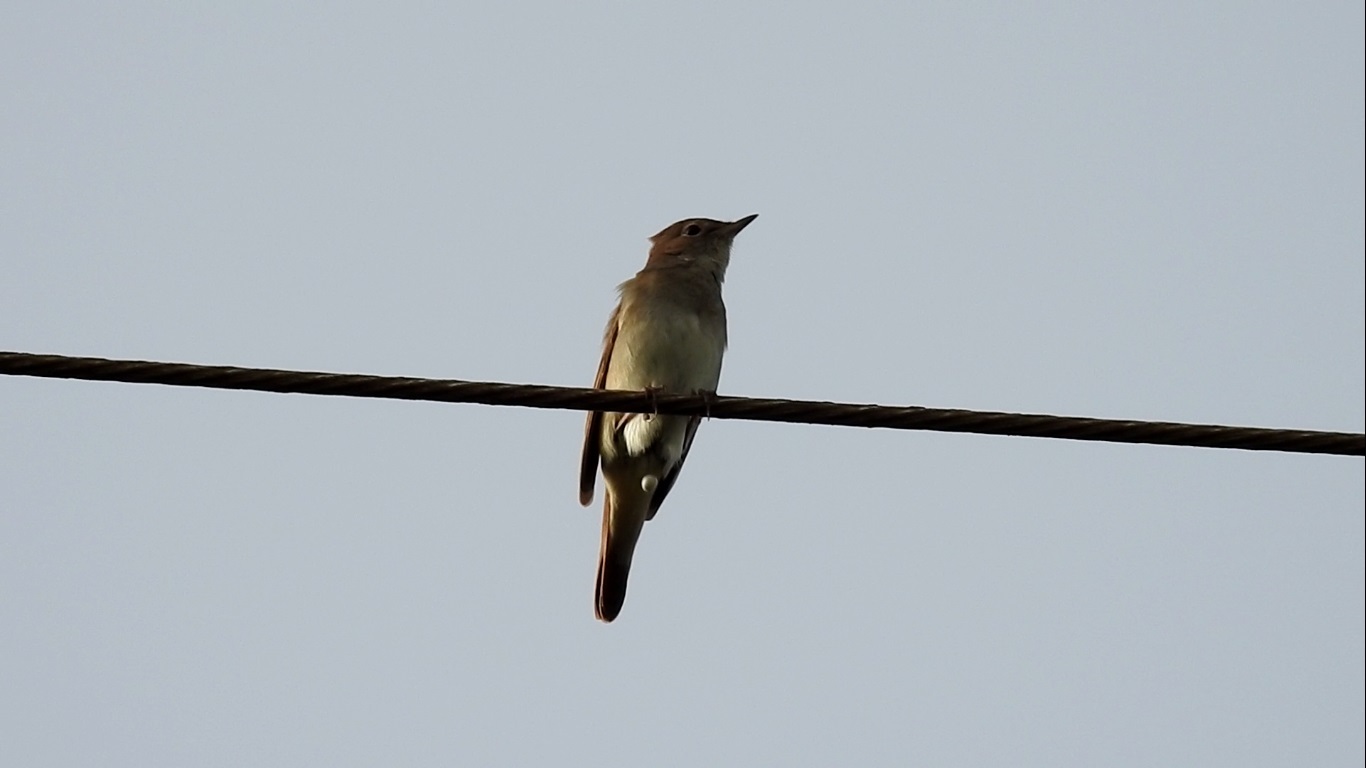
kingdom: Animalia
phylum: Chordata
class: Aves
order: Passeriformes
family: Muscicapidae
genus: Luscinia
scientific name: Luscinia megarhynchos
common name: Common nightingale
